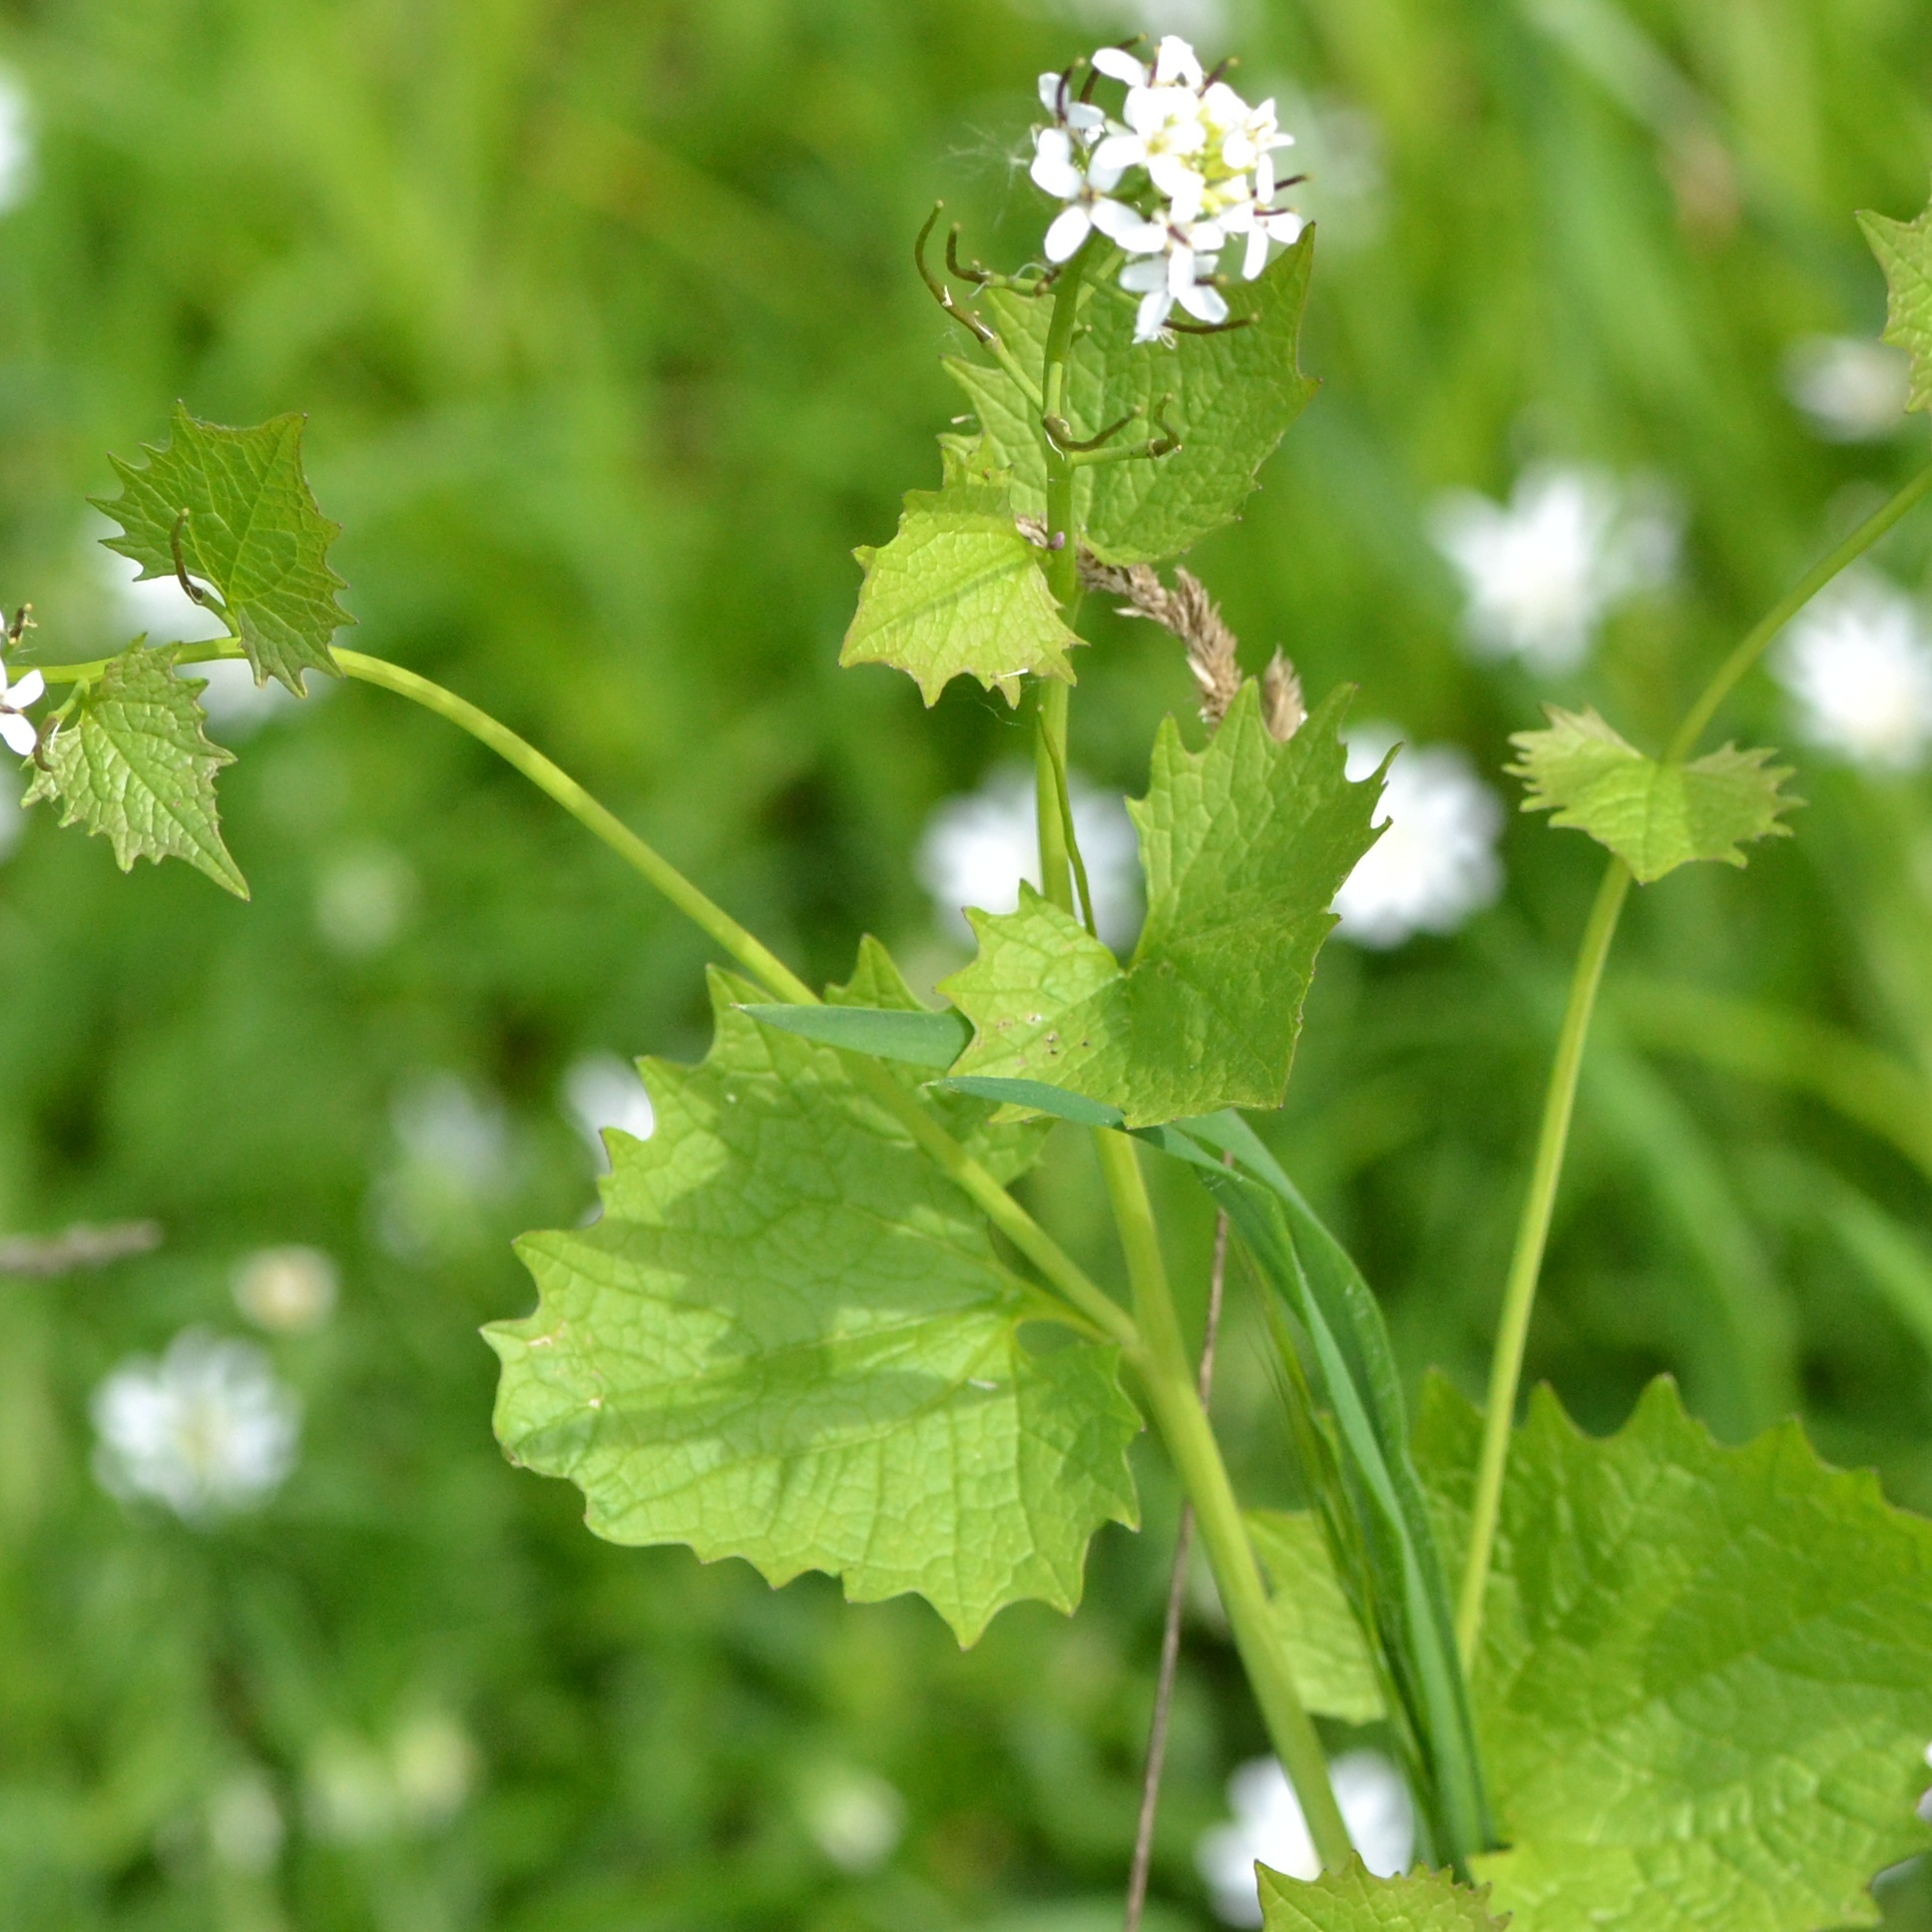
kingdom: Plantae
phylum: Tracheophyta
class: Magnoliopsida
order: Brassicales
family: Brassicaceae
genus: Alliaria
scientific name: Alliaria petiolata
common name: Garlic mustard
